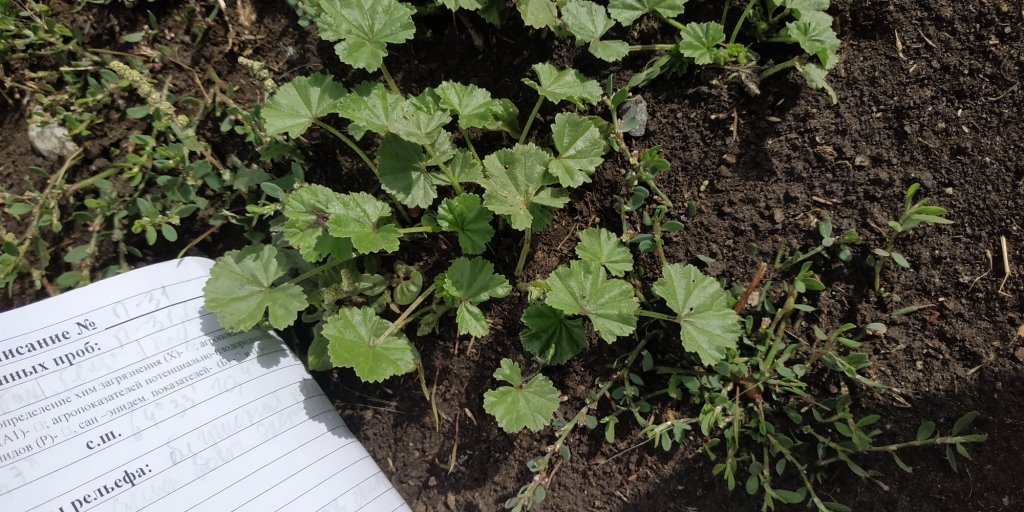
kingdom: Plantae
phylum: Tracheophyta
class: Magnoliopsida
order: Malvales
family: Malvaceae
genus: Malva
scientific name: Malva pusilla
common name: Small mallow
